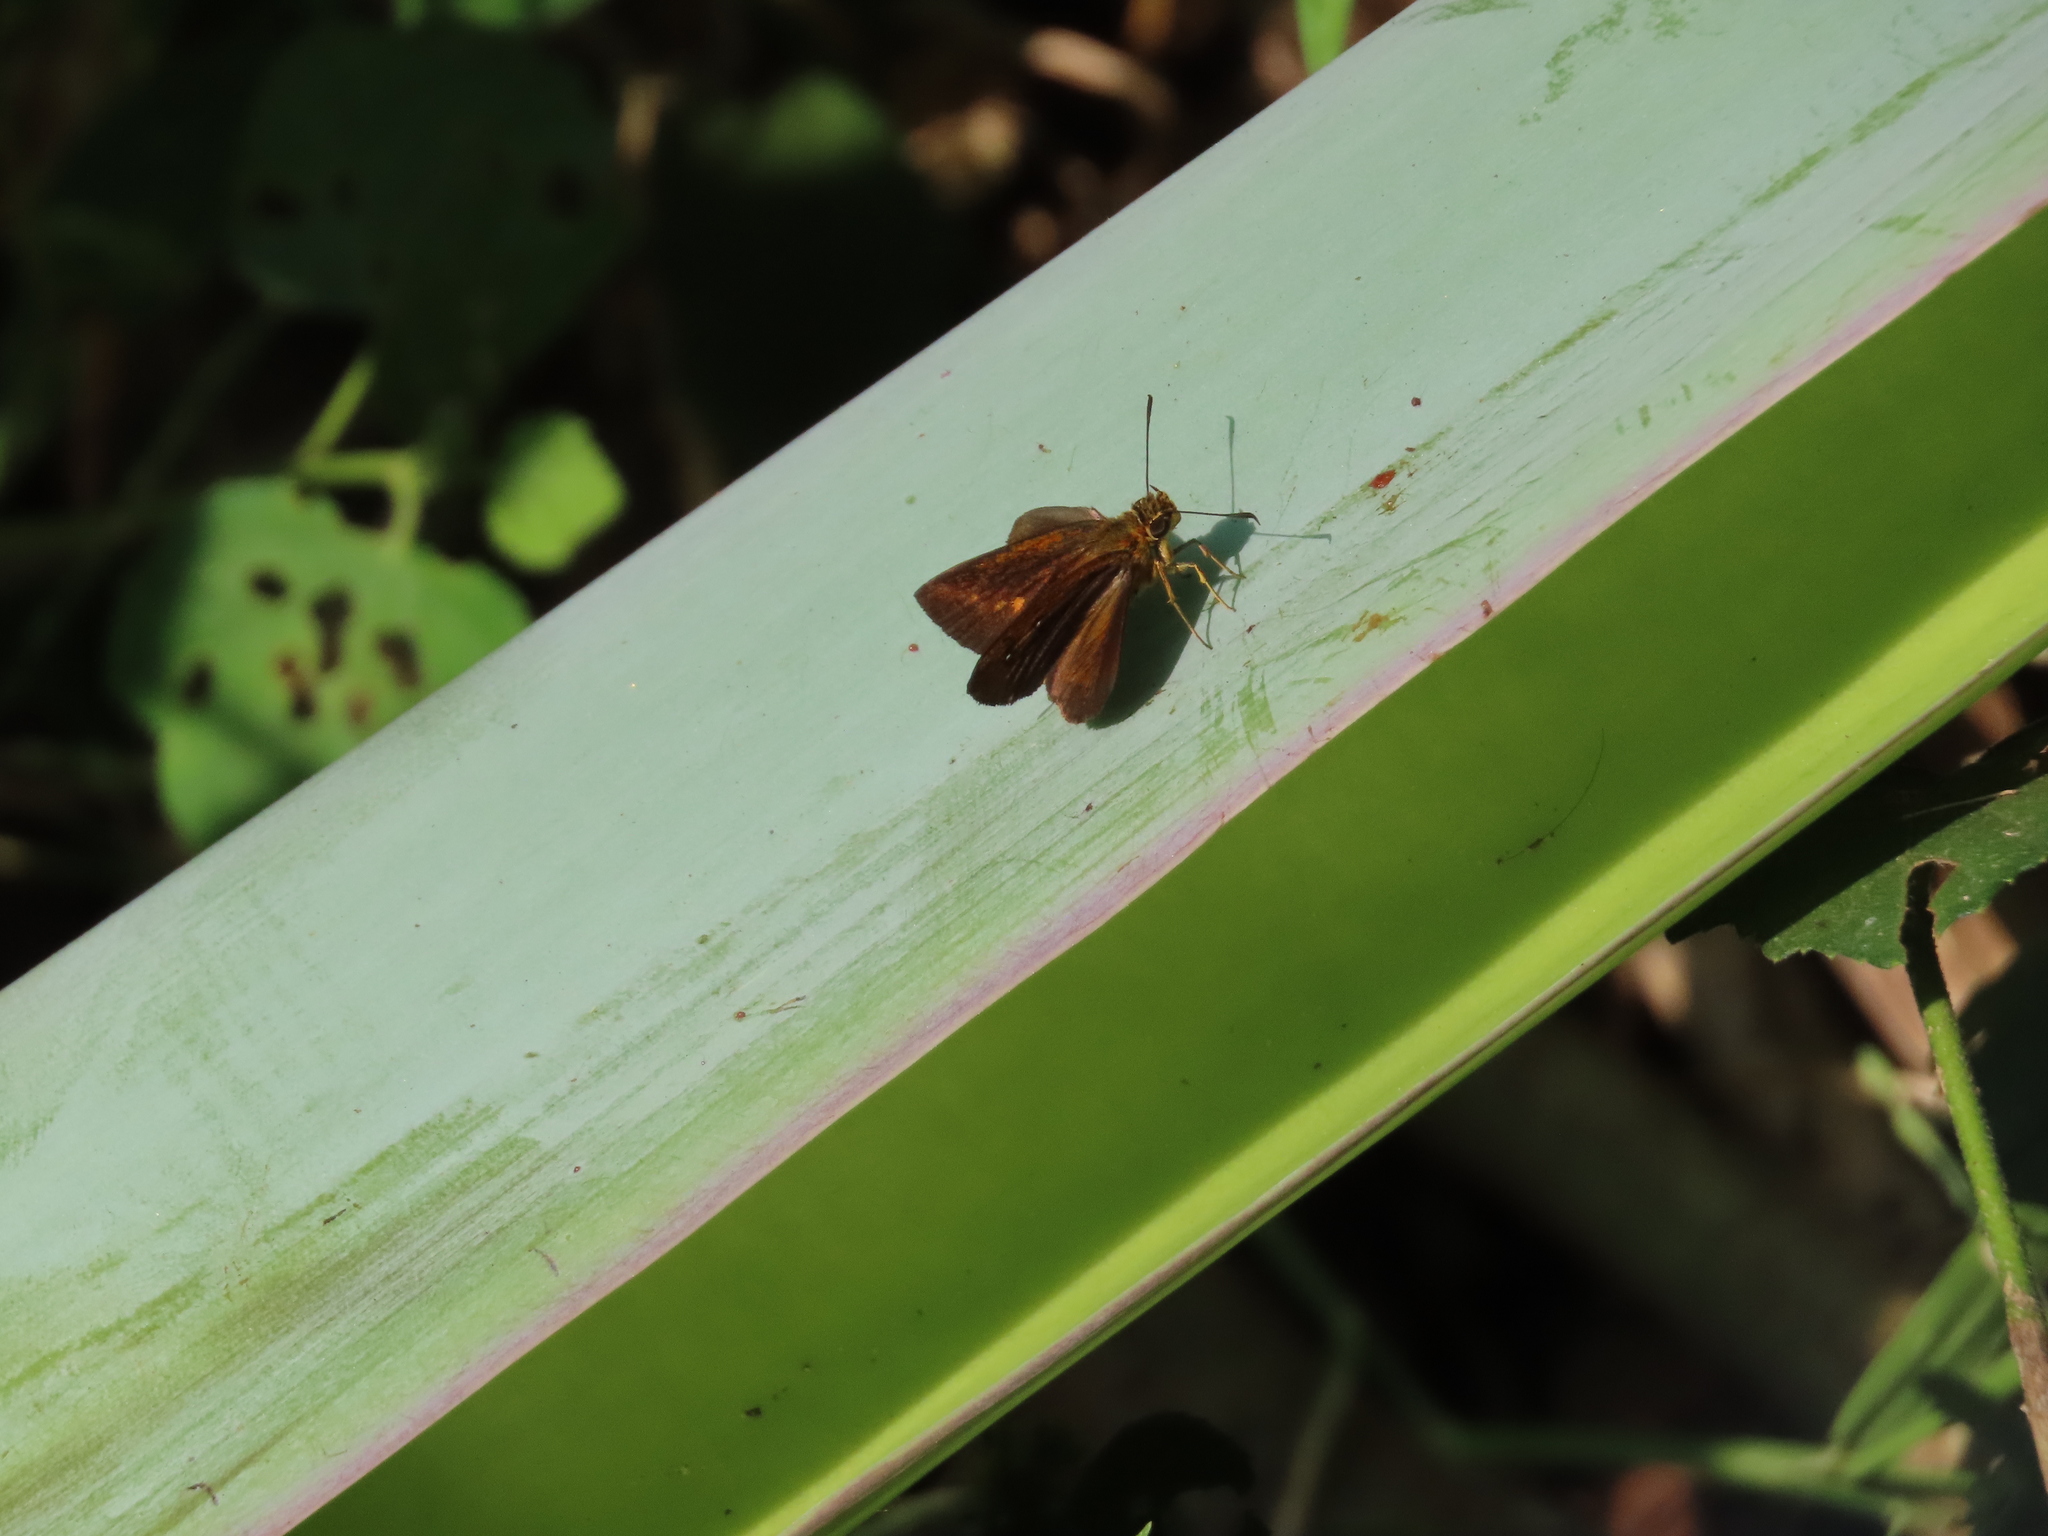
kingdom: Animalia
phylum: Arthropoda
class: Insecta
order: Lepidoptera
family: Hesperiidae
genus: Iambrix
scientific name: Iambrix salsala
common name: Chestnut bob
